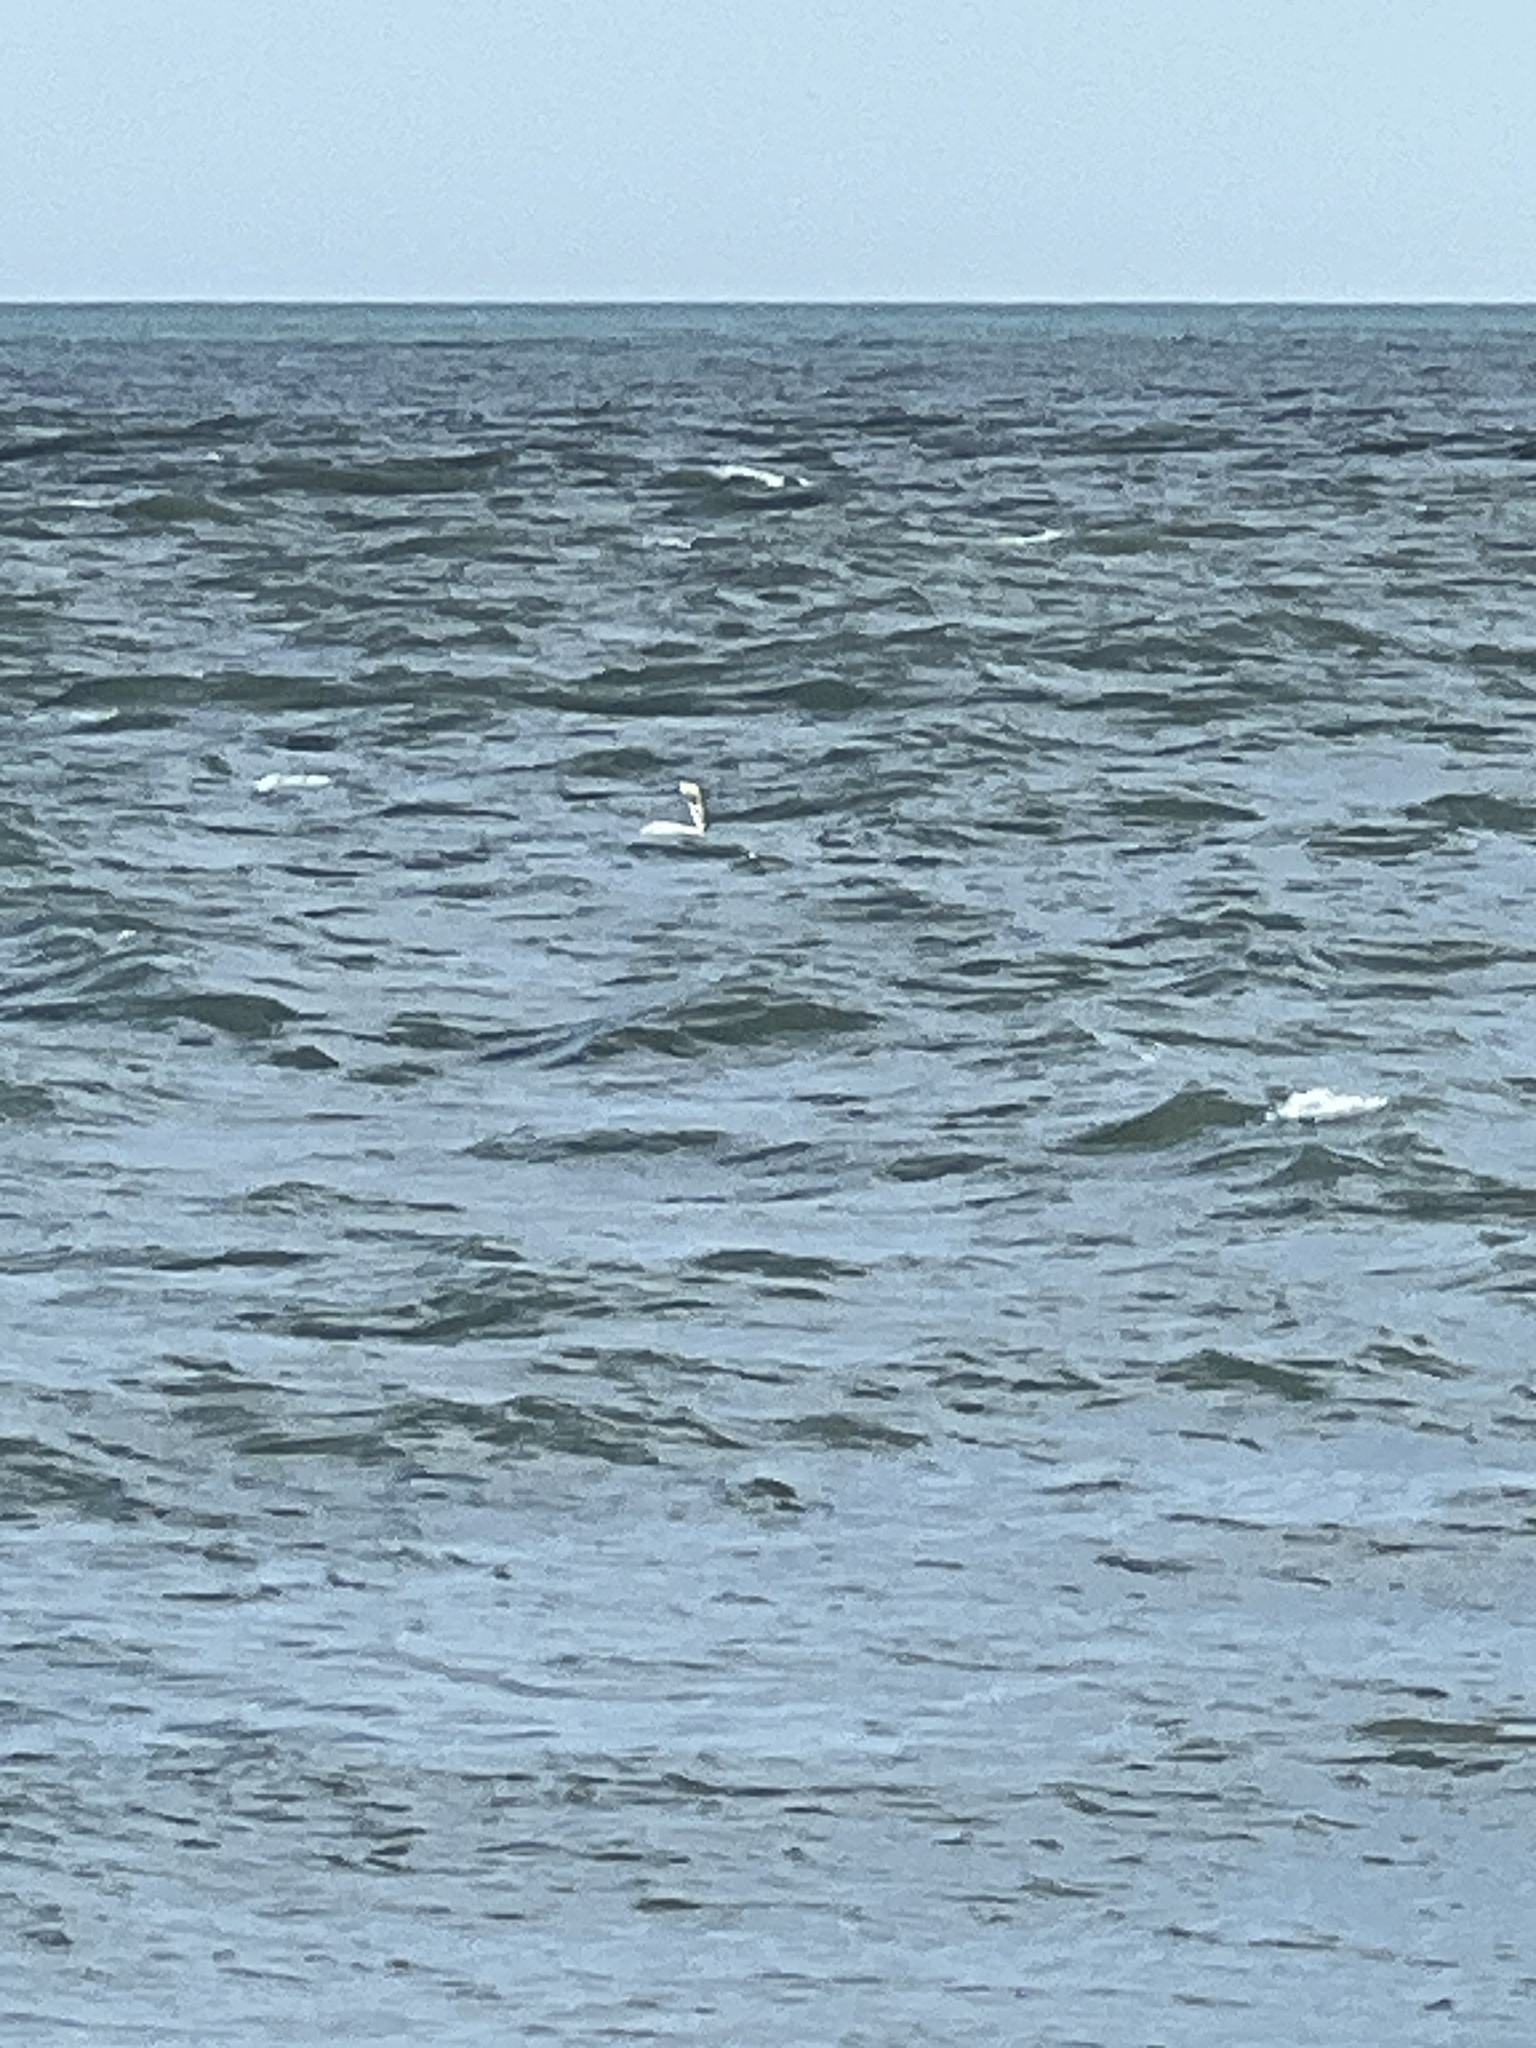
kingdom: Animalia
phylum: Chordata
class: Aves
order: Pelecaniformes
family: Pelecanidae
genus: Pelecanus
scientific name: Pelecanus occidentalis
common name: Brown pelican
